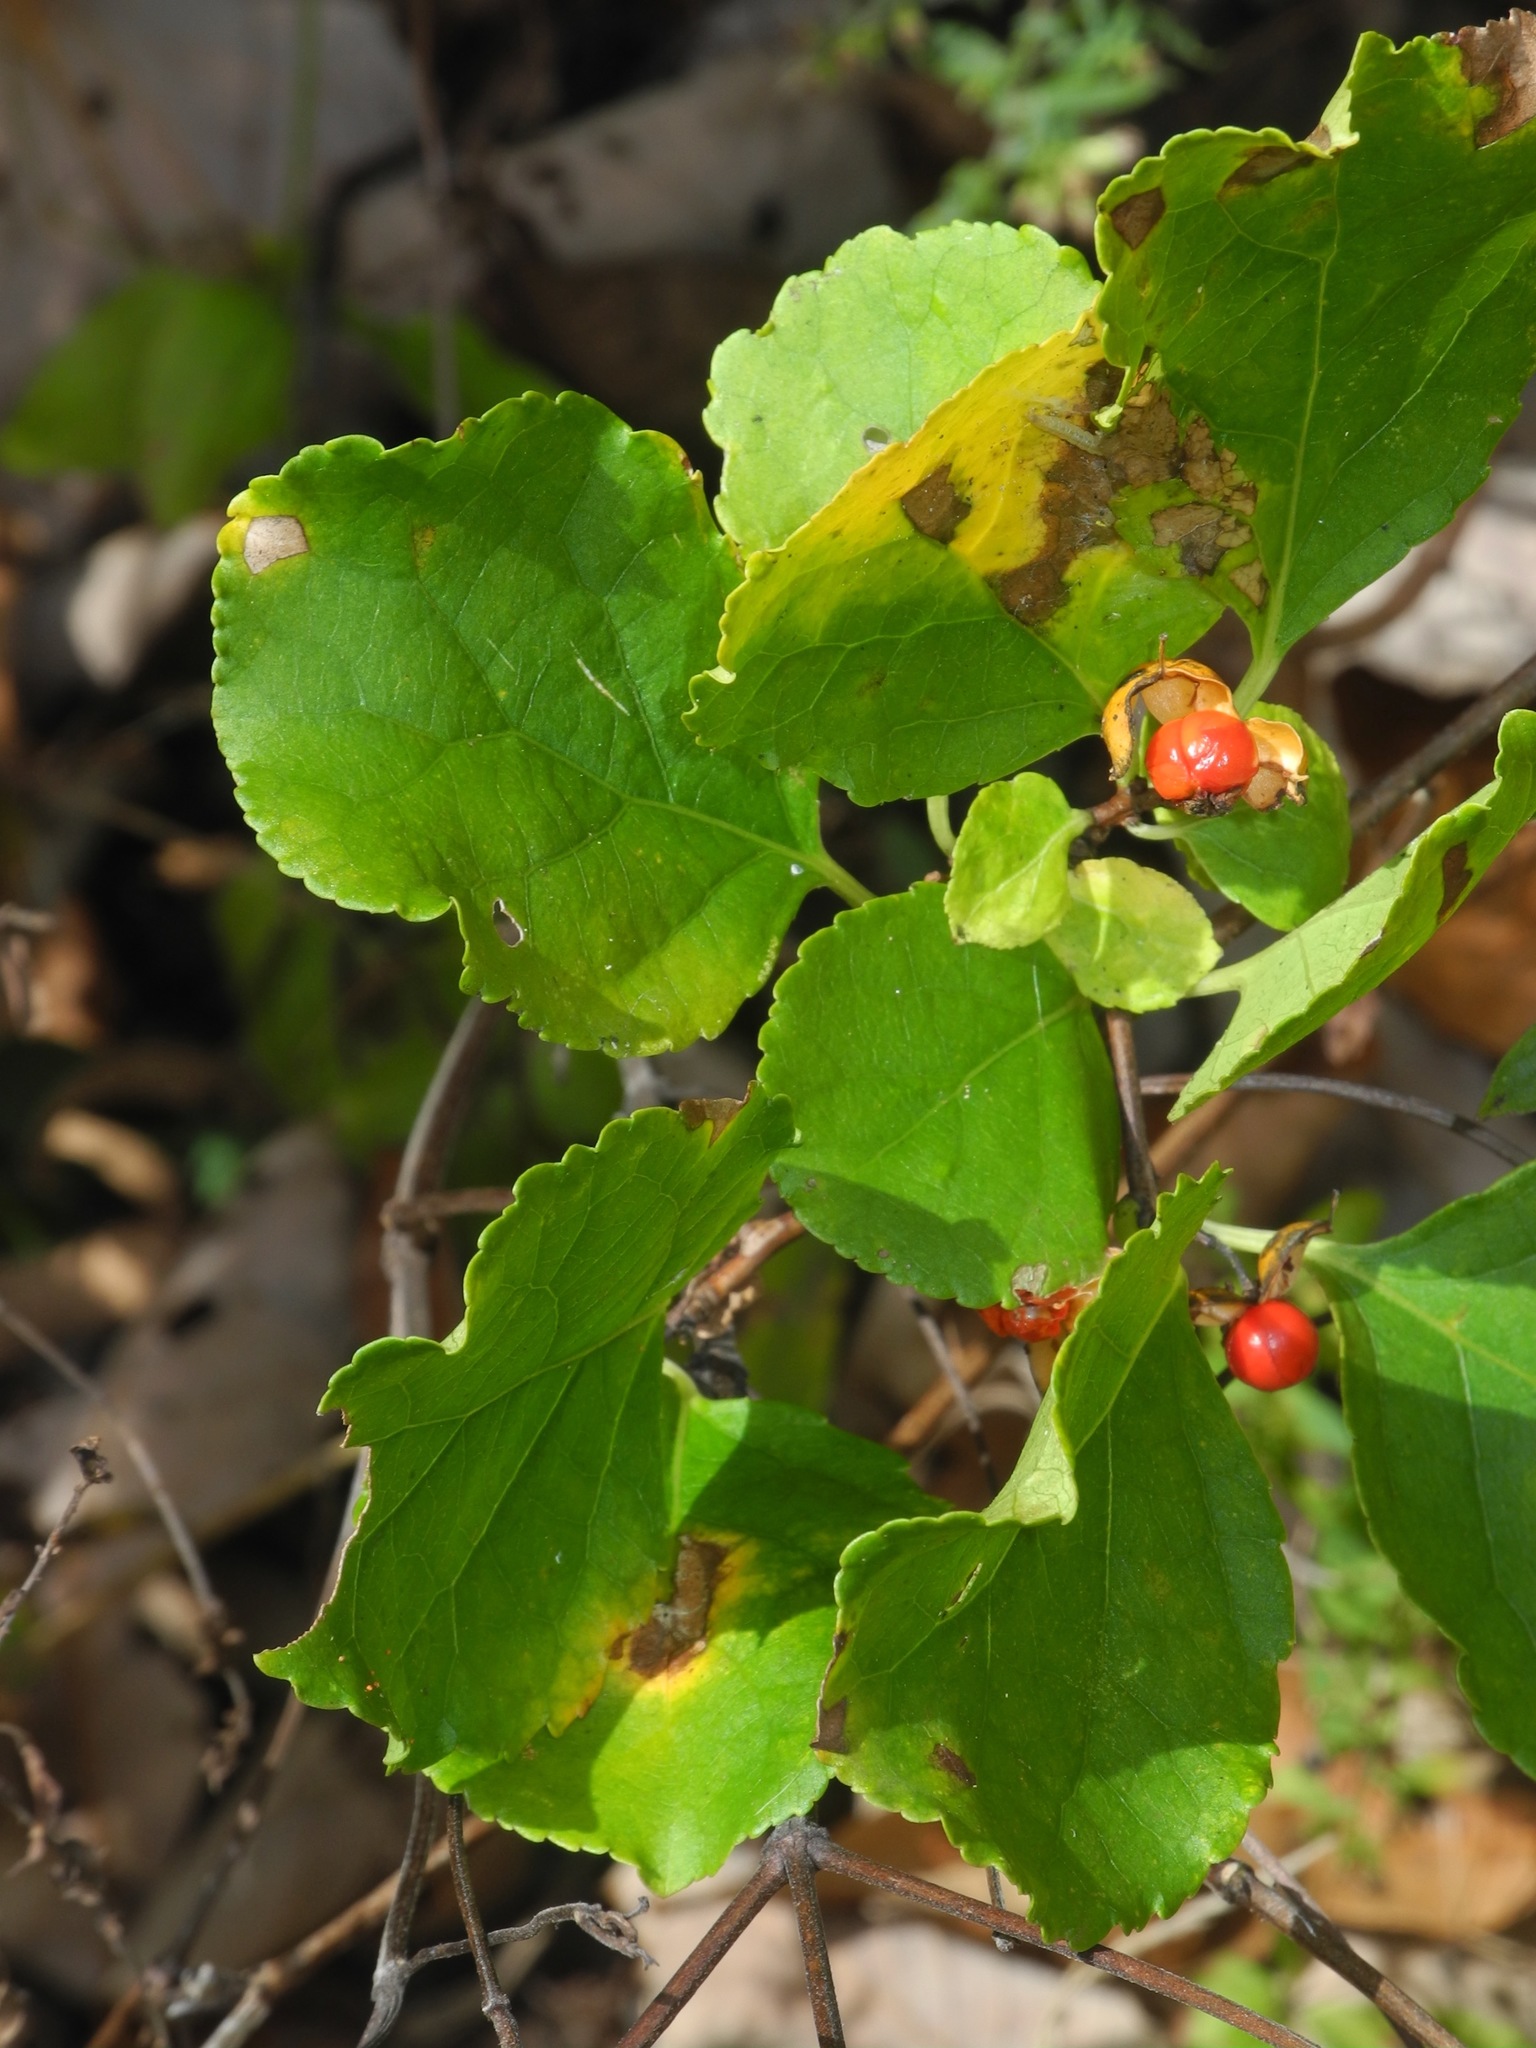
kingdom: Plantae
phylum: Tracheophyta
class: Magnoliopsida
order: Celastrales
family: Celastraceae
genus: Celastrus
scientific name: Celastrus orbiculatus
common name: Oriental bittersweet
